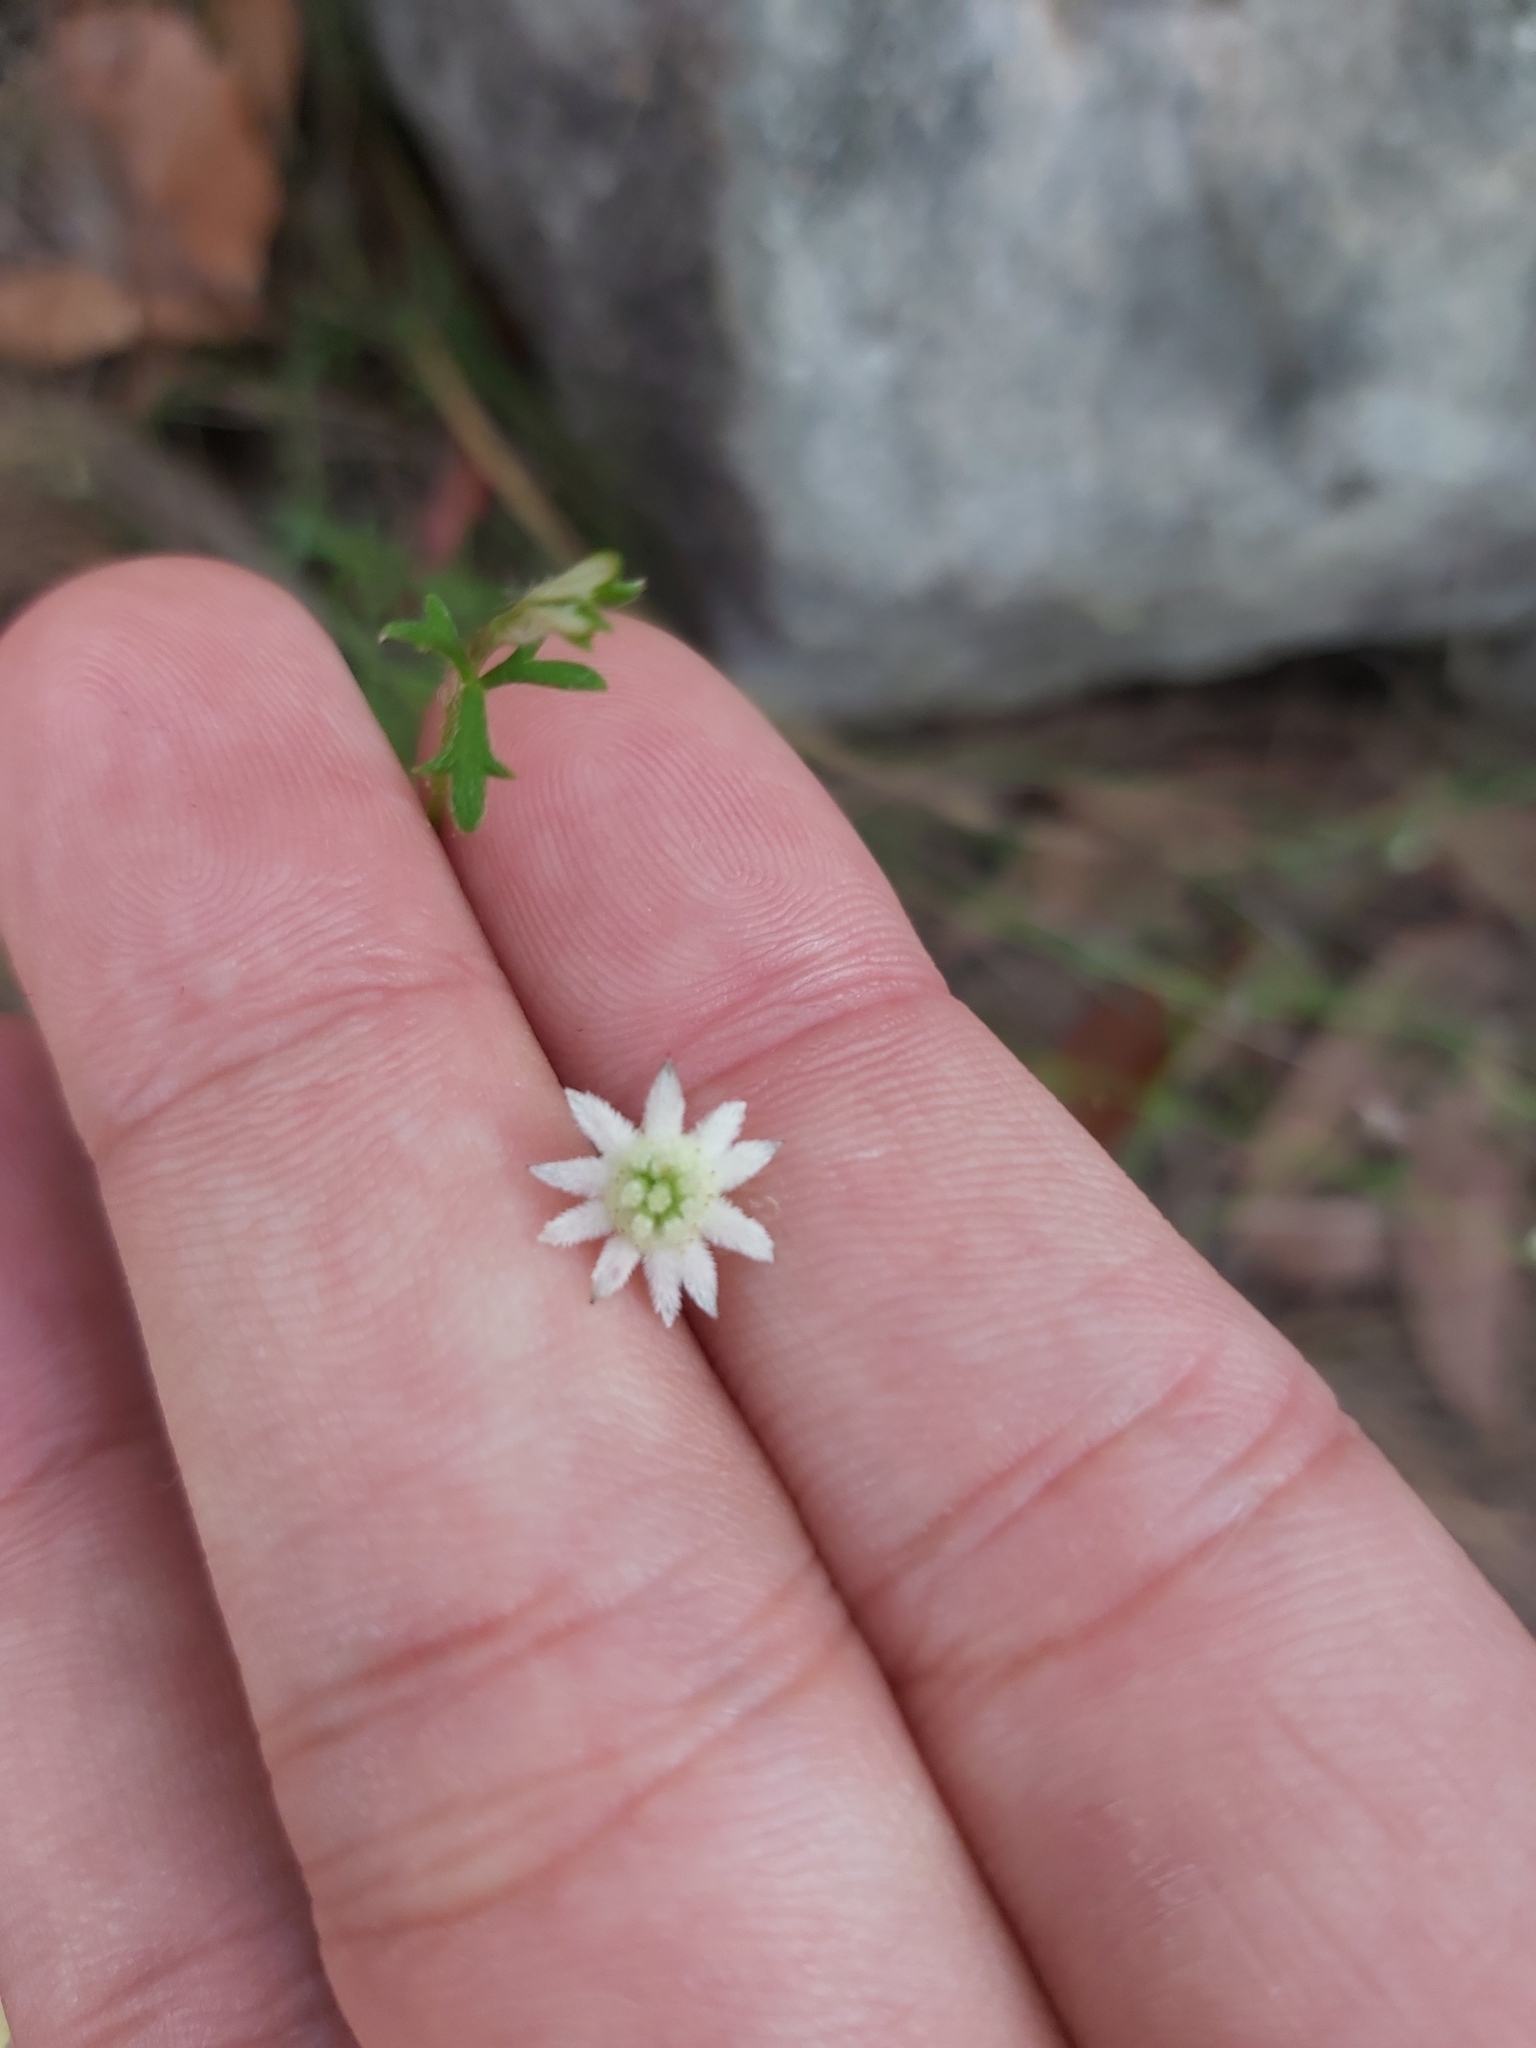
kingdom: Plantae
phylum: Tracheophyta
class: Magnoliopsida
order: Apiales
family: Apiaceae
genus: Actinotus
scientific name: Actinotus minor
